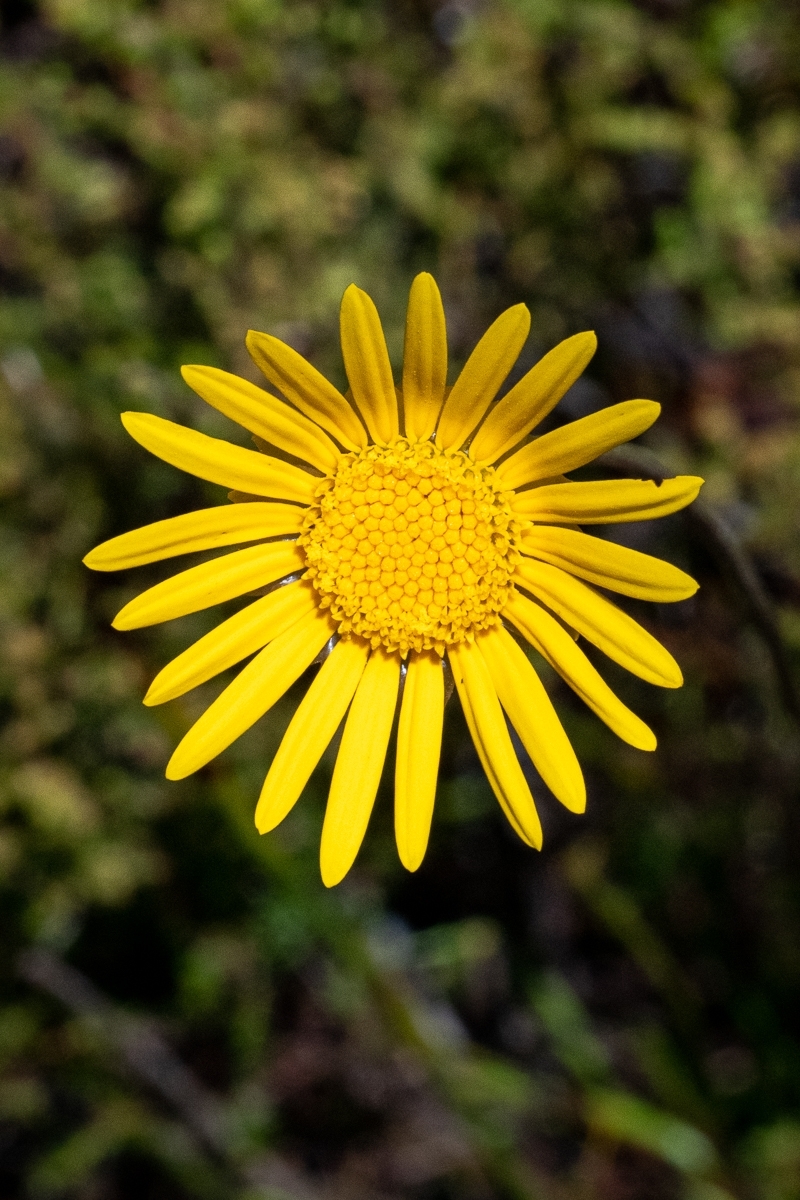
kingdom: Plantae
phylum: Tracheophyta
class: Magnoliopsida
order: Asterales
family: Asteraceae
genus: Ursinia
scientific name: Ursinia paleacea
